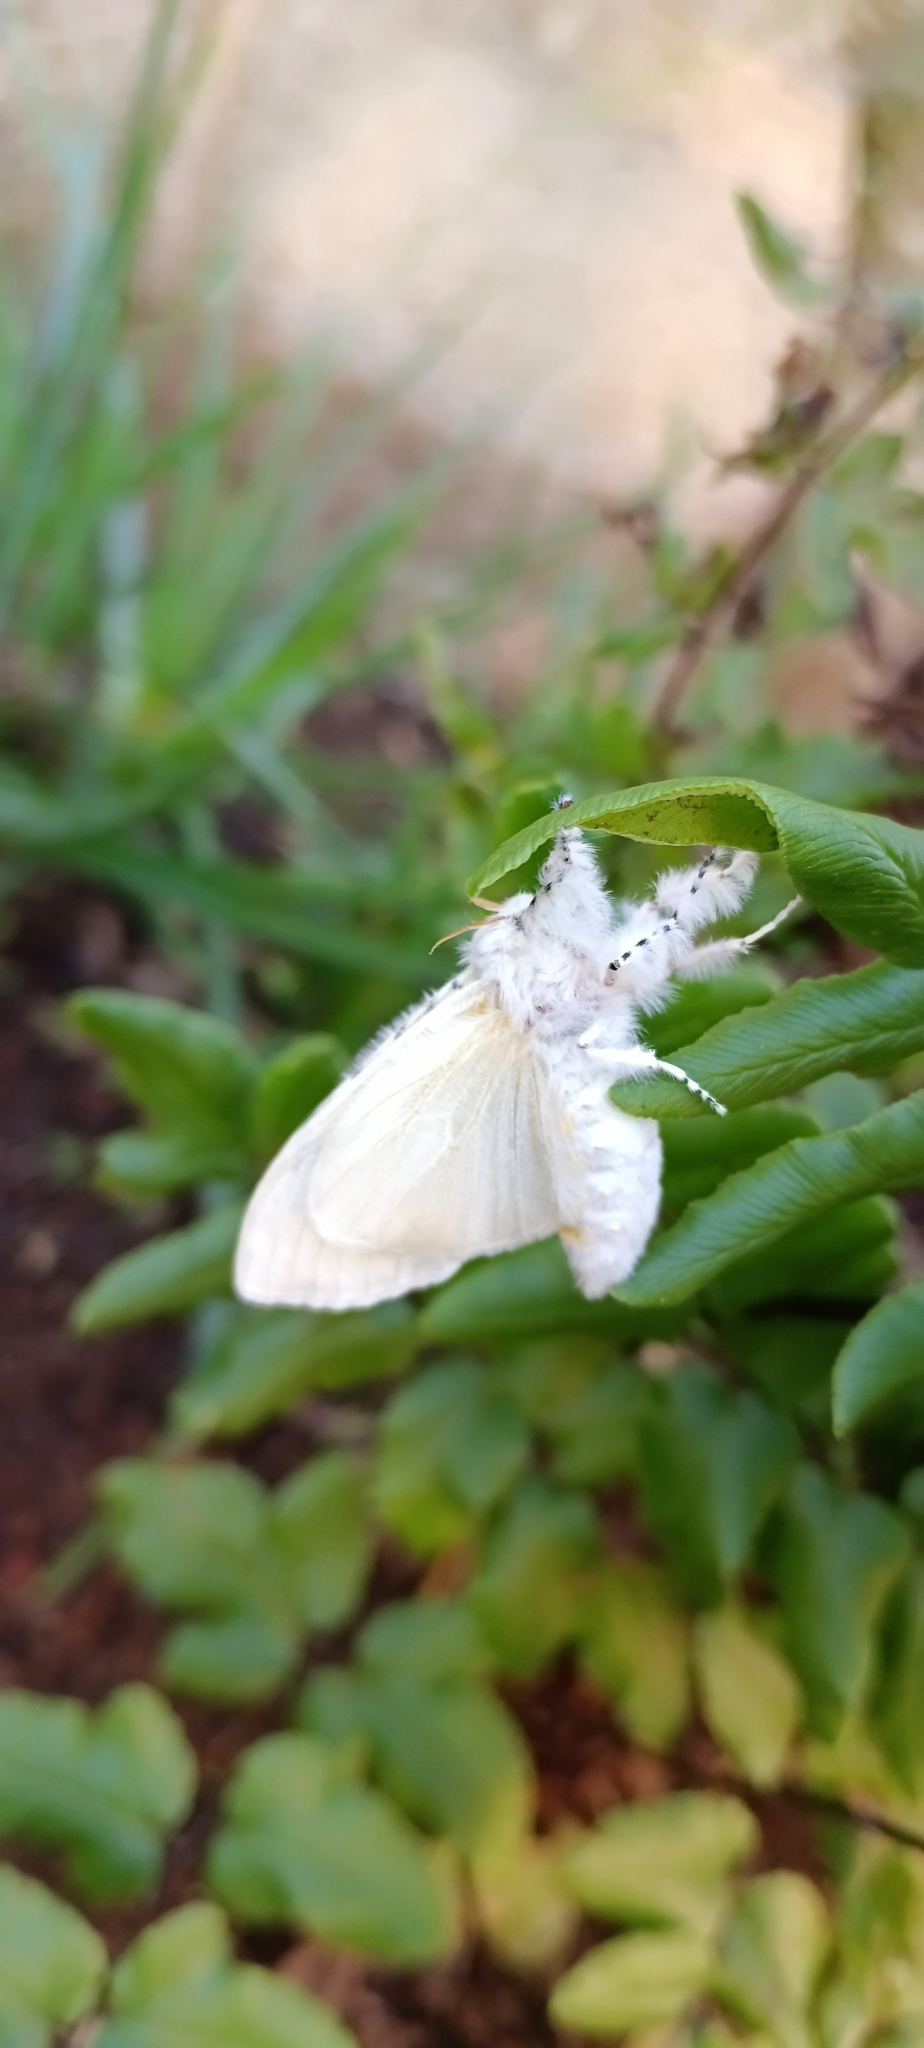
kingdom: Animalia
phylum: Arthropoda
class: Insecta
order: Lepidoptera
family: Erebidae
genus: Dasychira
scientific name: Dasychira georgiana
